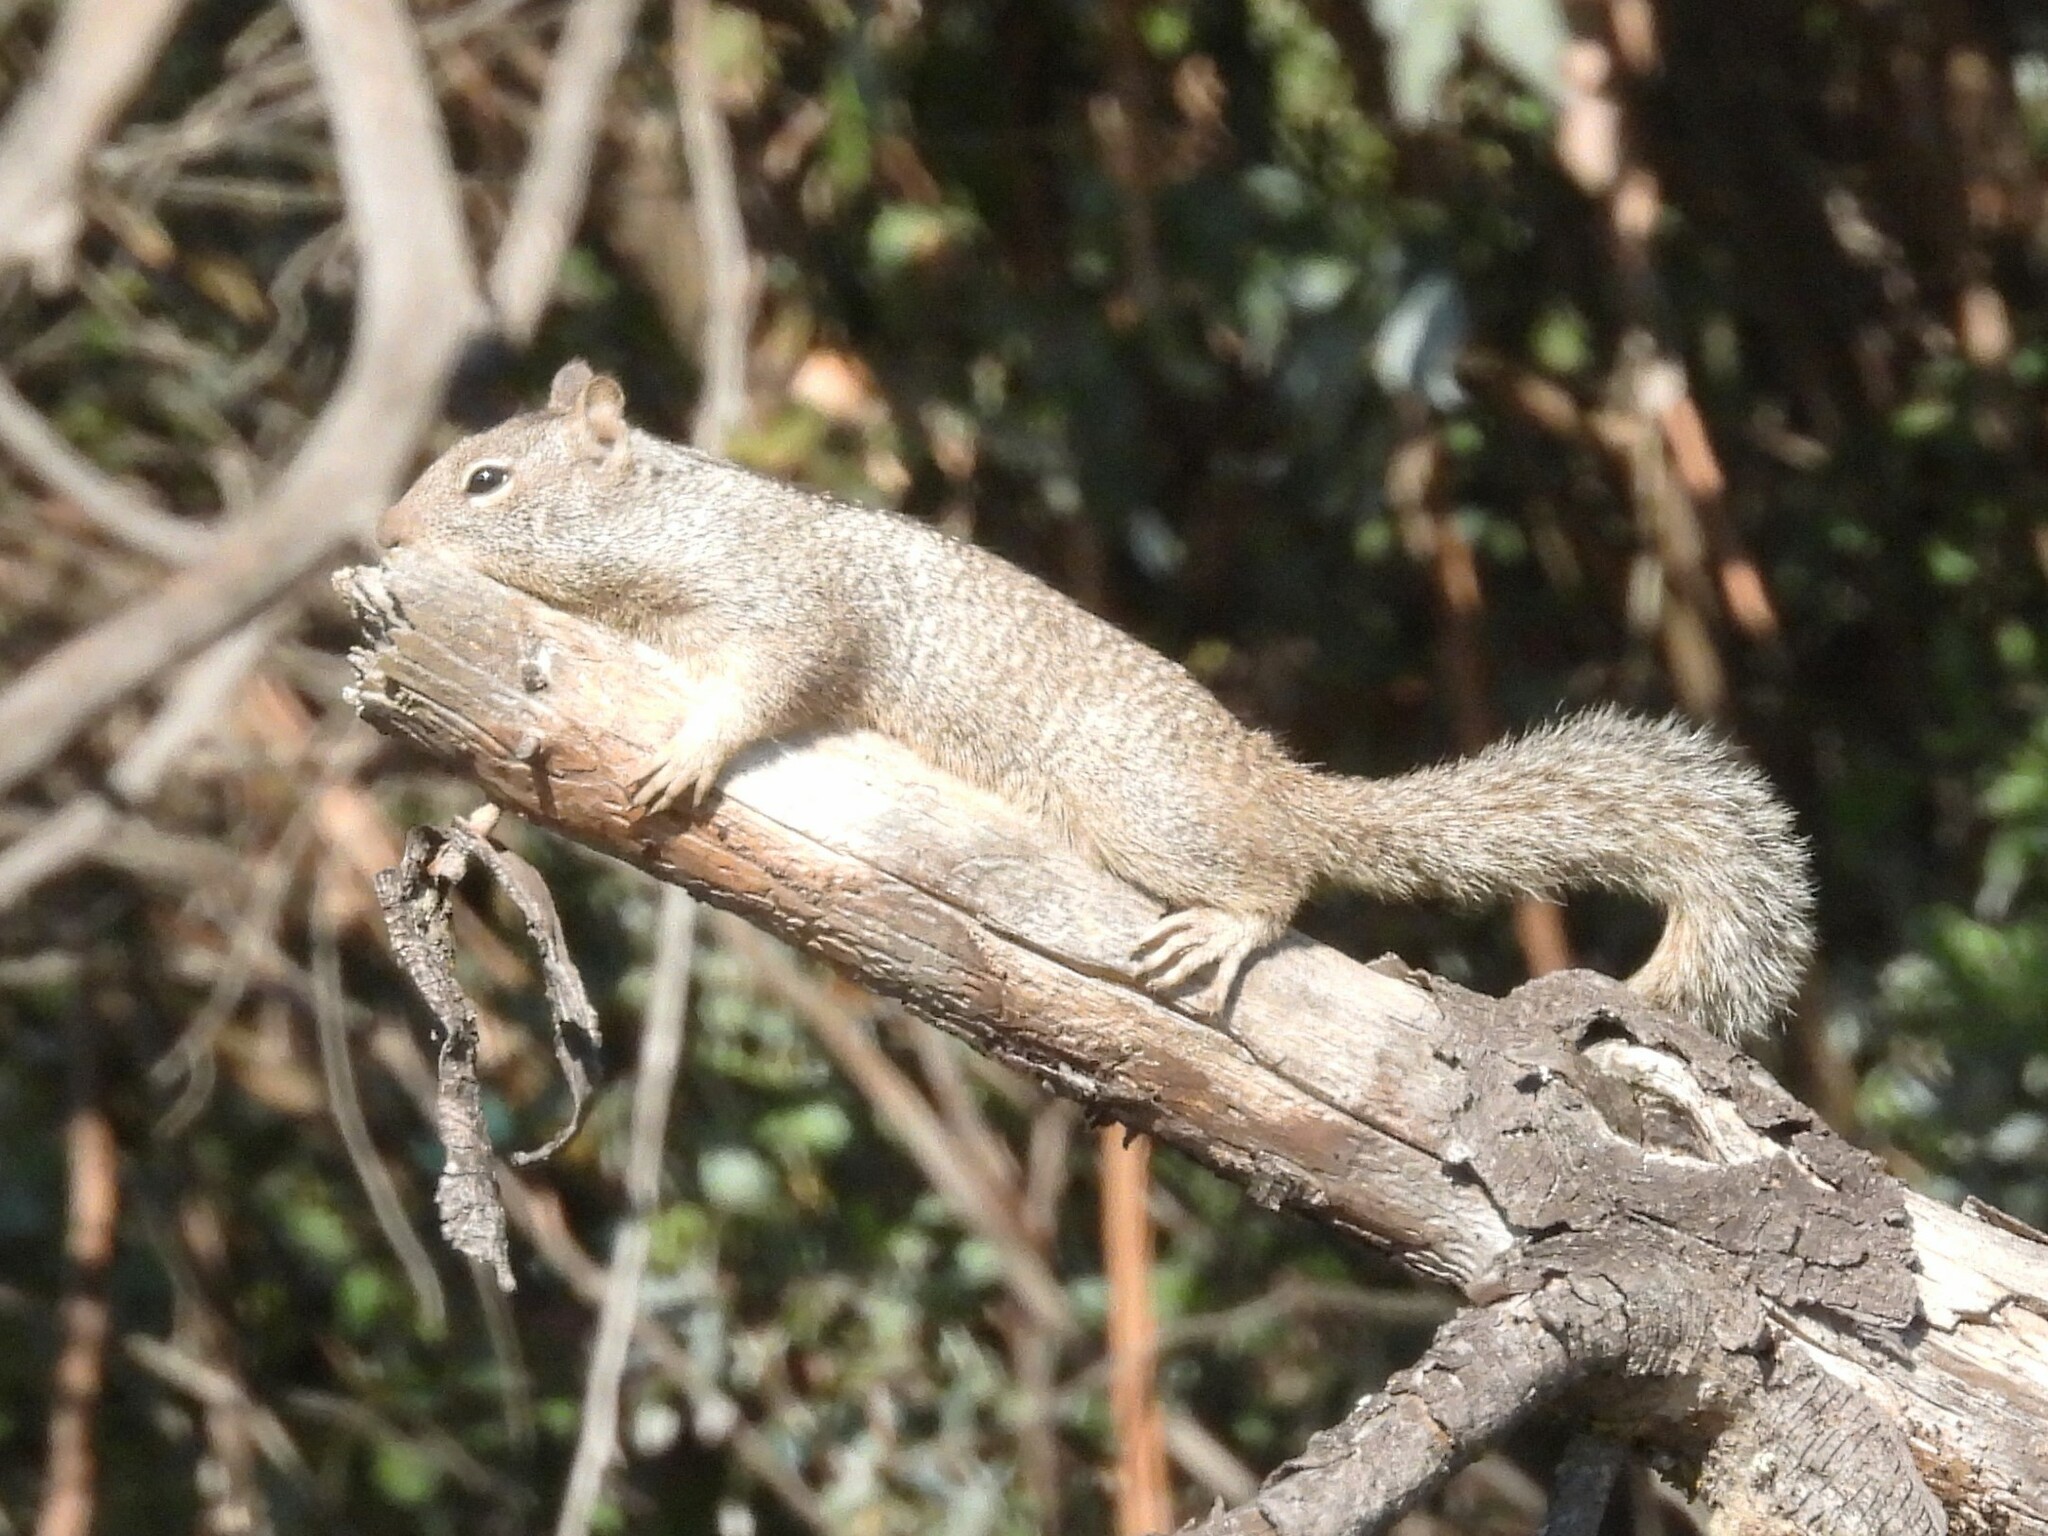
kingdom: Animalia
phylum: Chordata
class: Mammalia
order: Rodentia
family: Sciuridae
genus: Otospermophilus
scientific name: Otospermophilus beecheyi
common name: California ground squirrel
